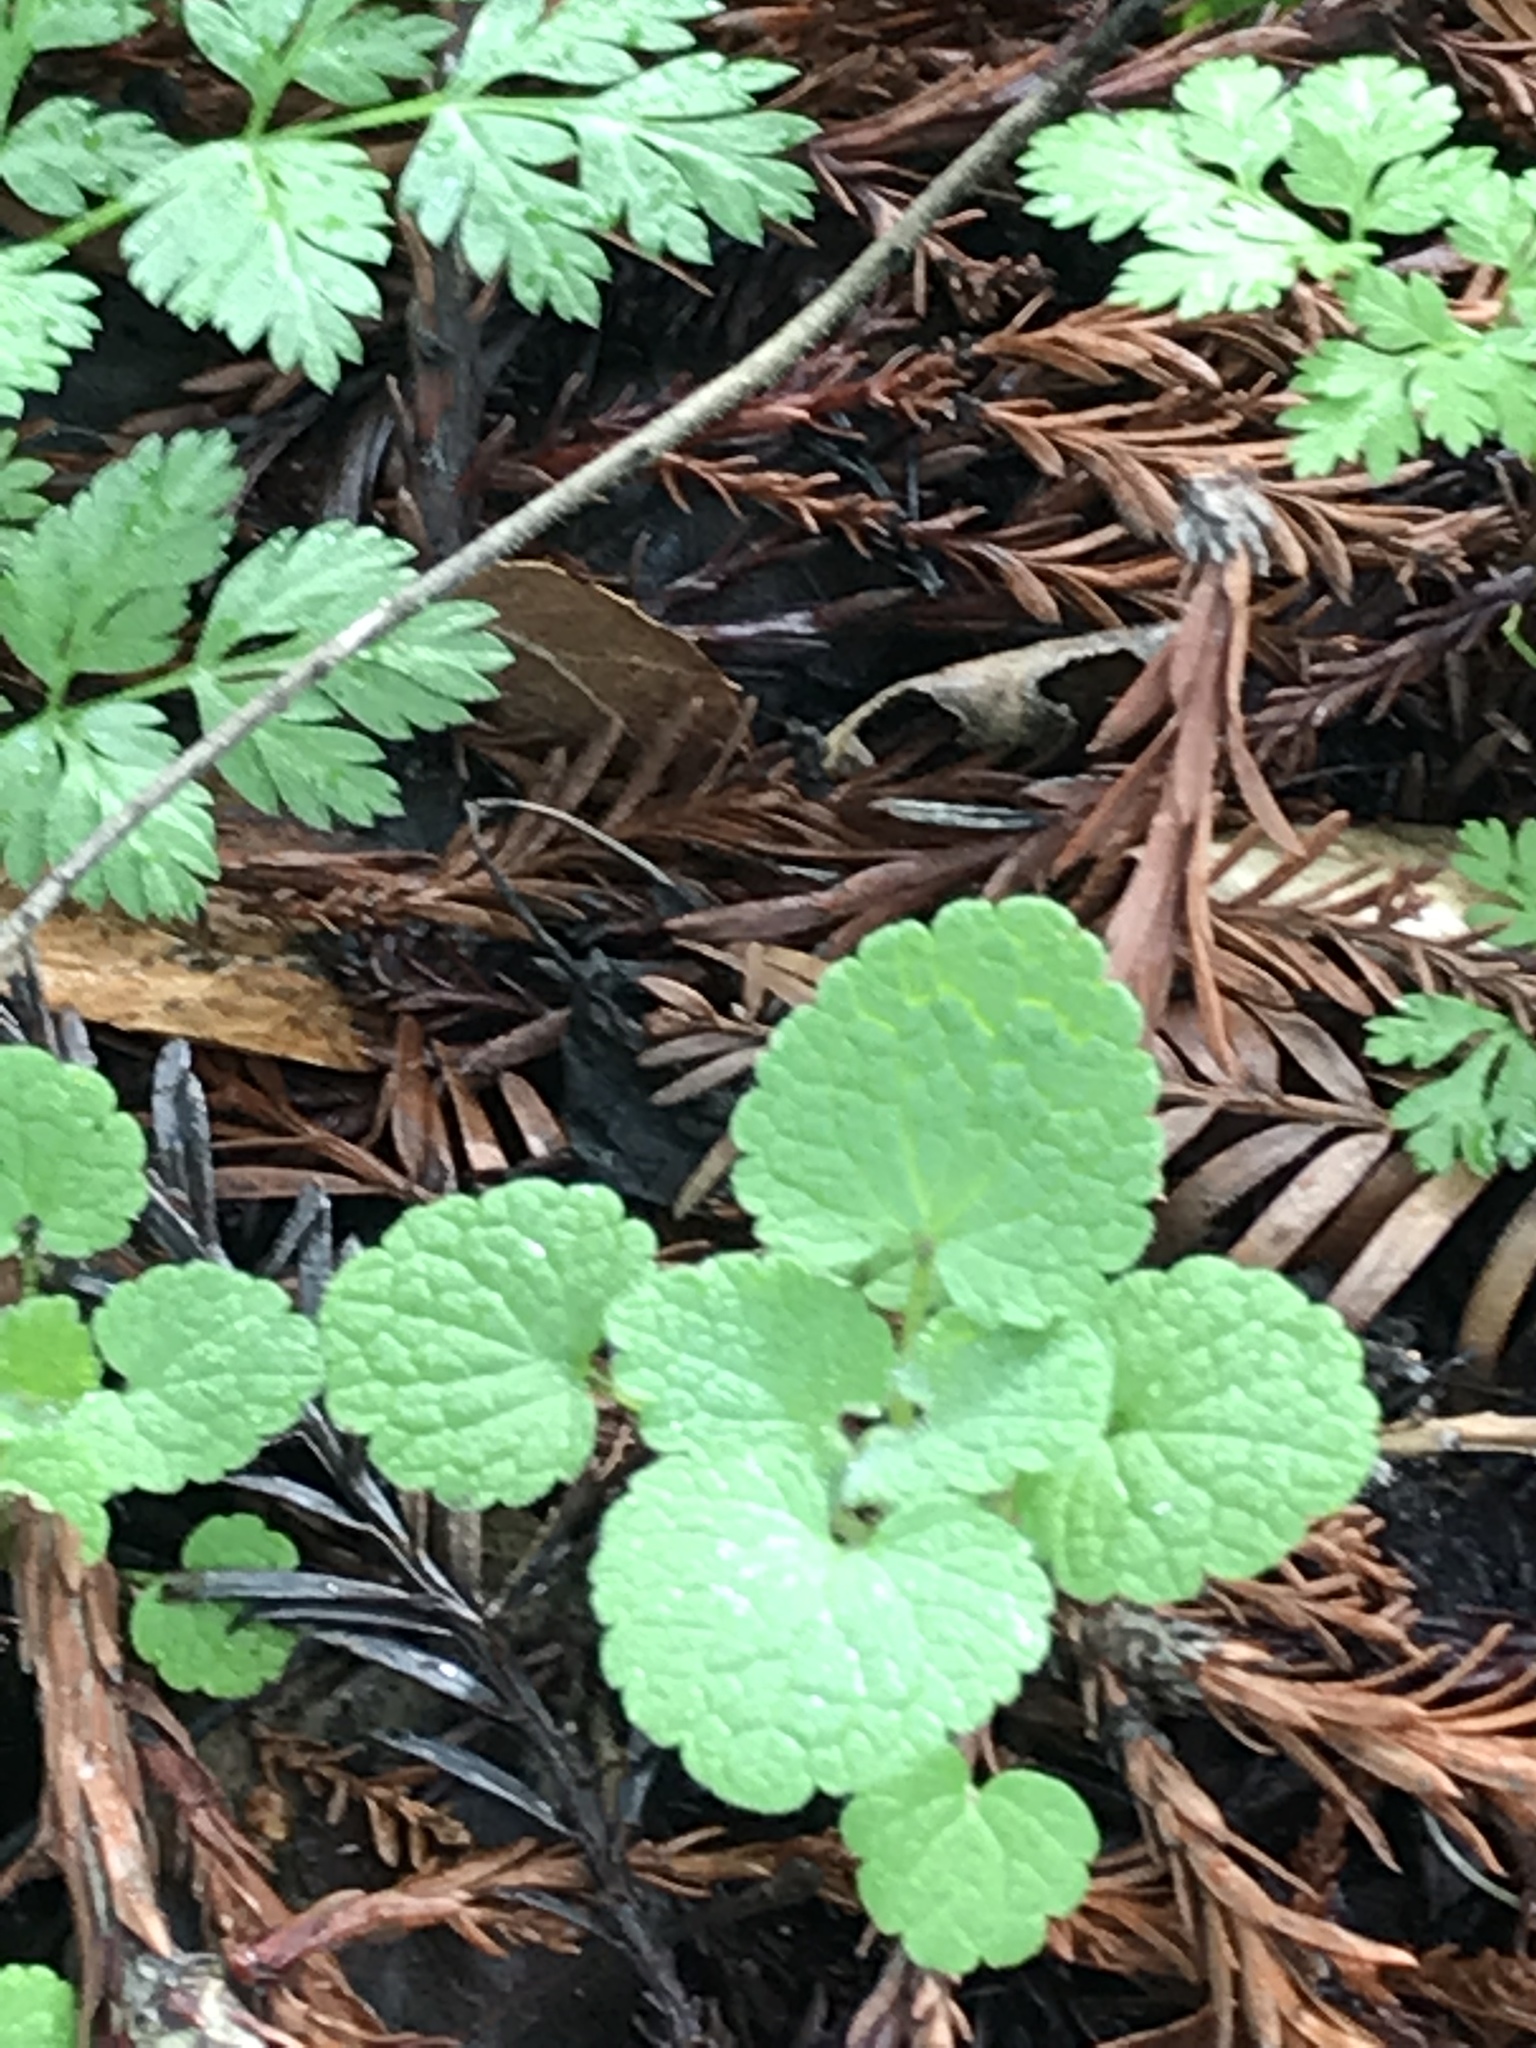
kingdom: Plantae
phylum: Tracheophyta
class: Magnoliopsida
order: Lamiales
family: Lamiaceae
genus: Lamium
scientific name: Lamium purpureum
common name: Red dead-nettle
